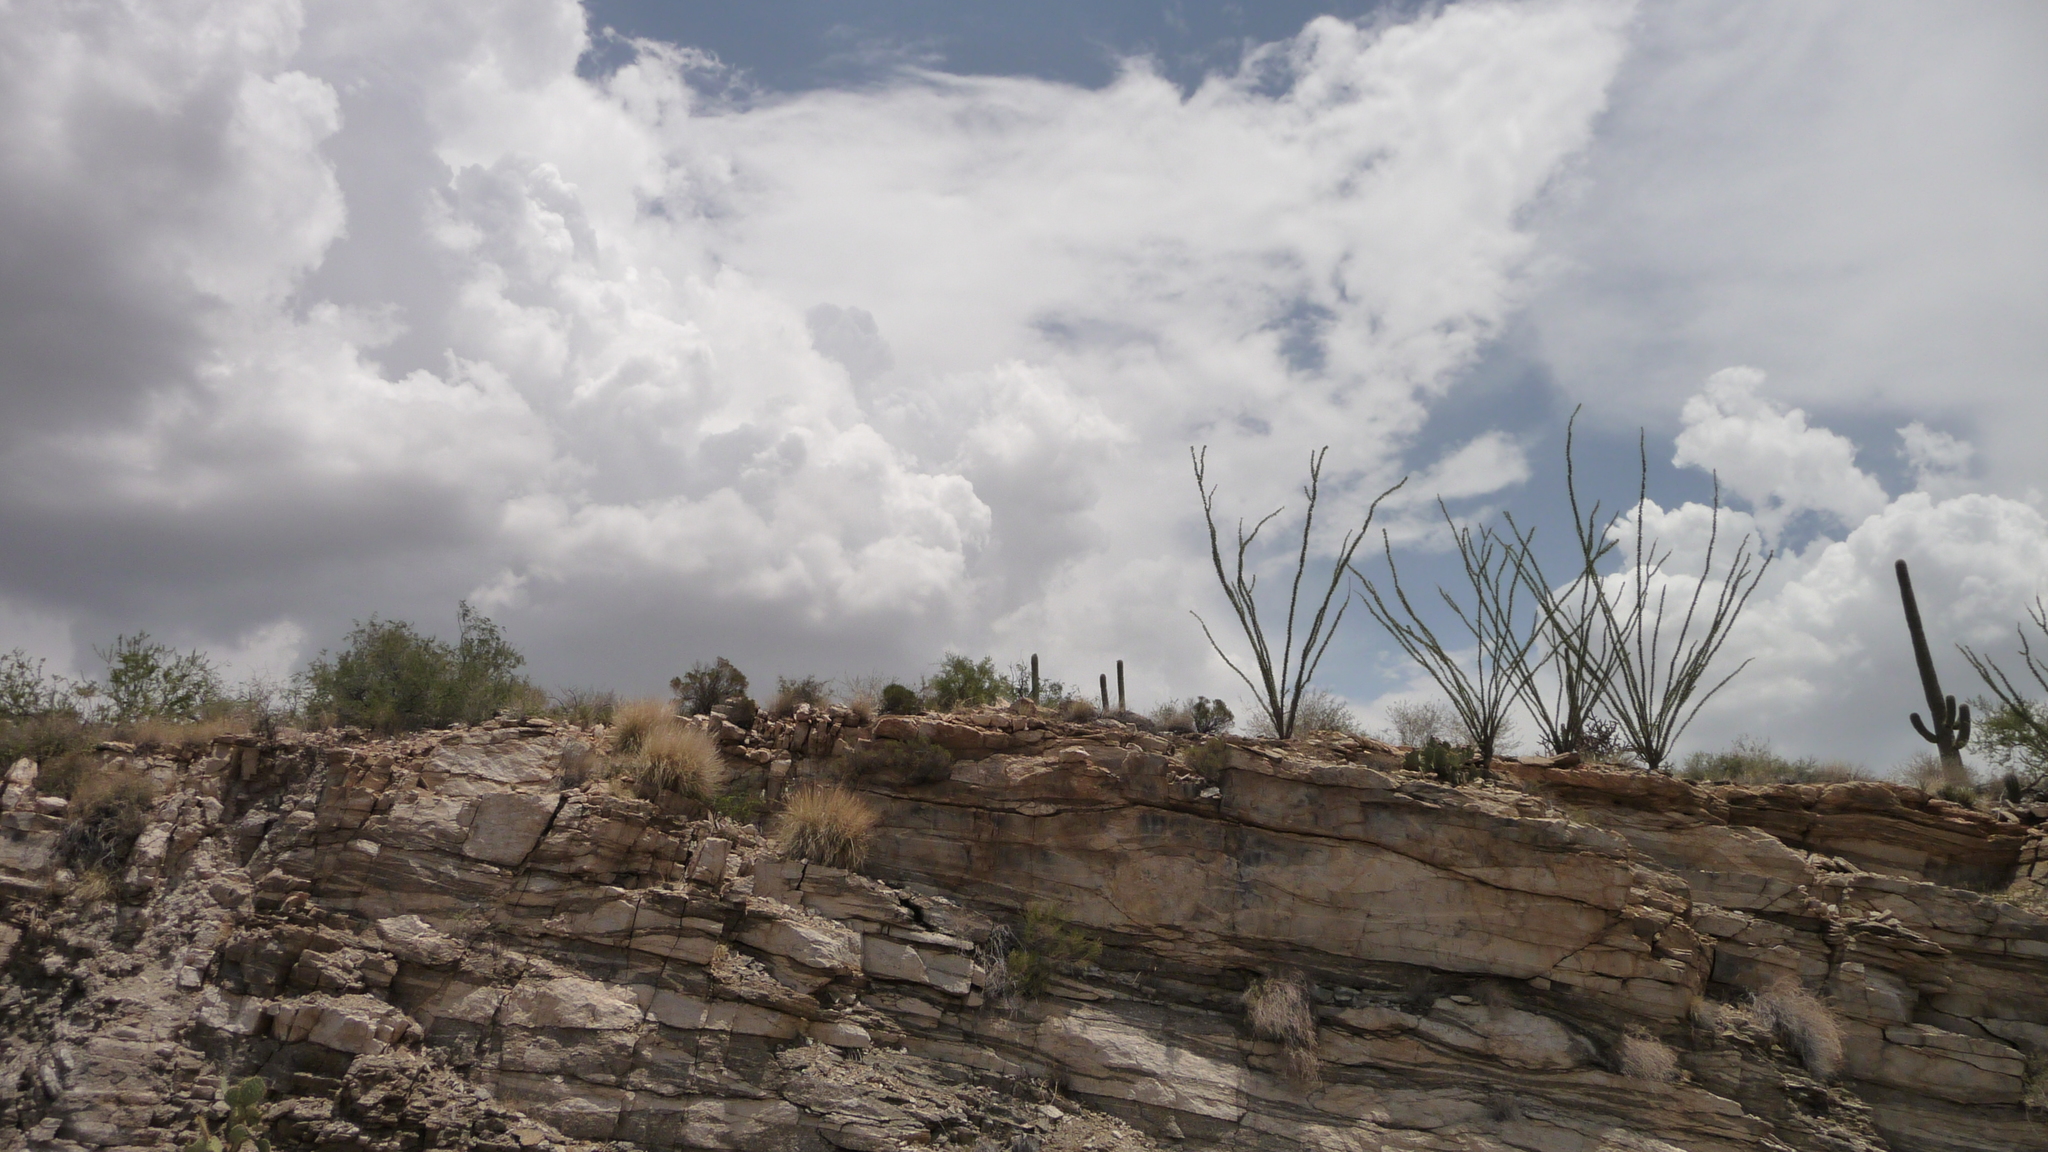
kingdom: Plantae
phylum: Tracheophyta
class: Magnoliopsida
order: Ericales
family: Fouquieriaceae
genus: Fouquieria
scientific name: Fouquieria splendens
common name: Vine-cactus
